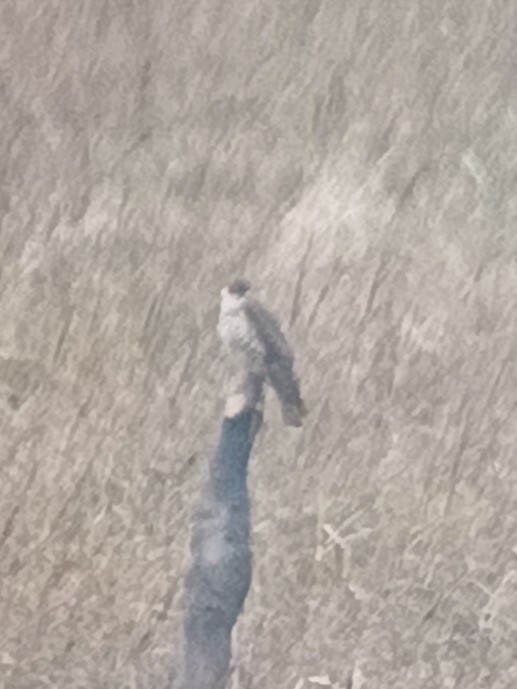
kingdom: Animalia
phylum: Chordata
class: Aves
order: Falconiformes
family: Falconidae
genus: Falco
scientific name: Falco columbarius
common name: Merlin
